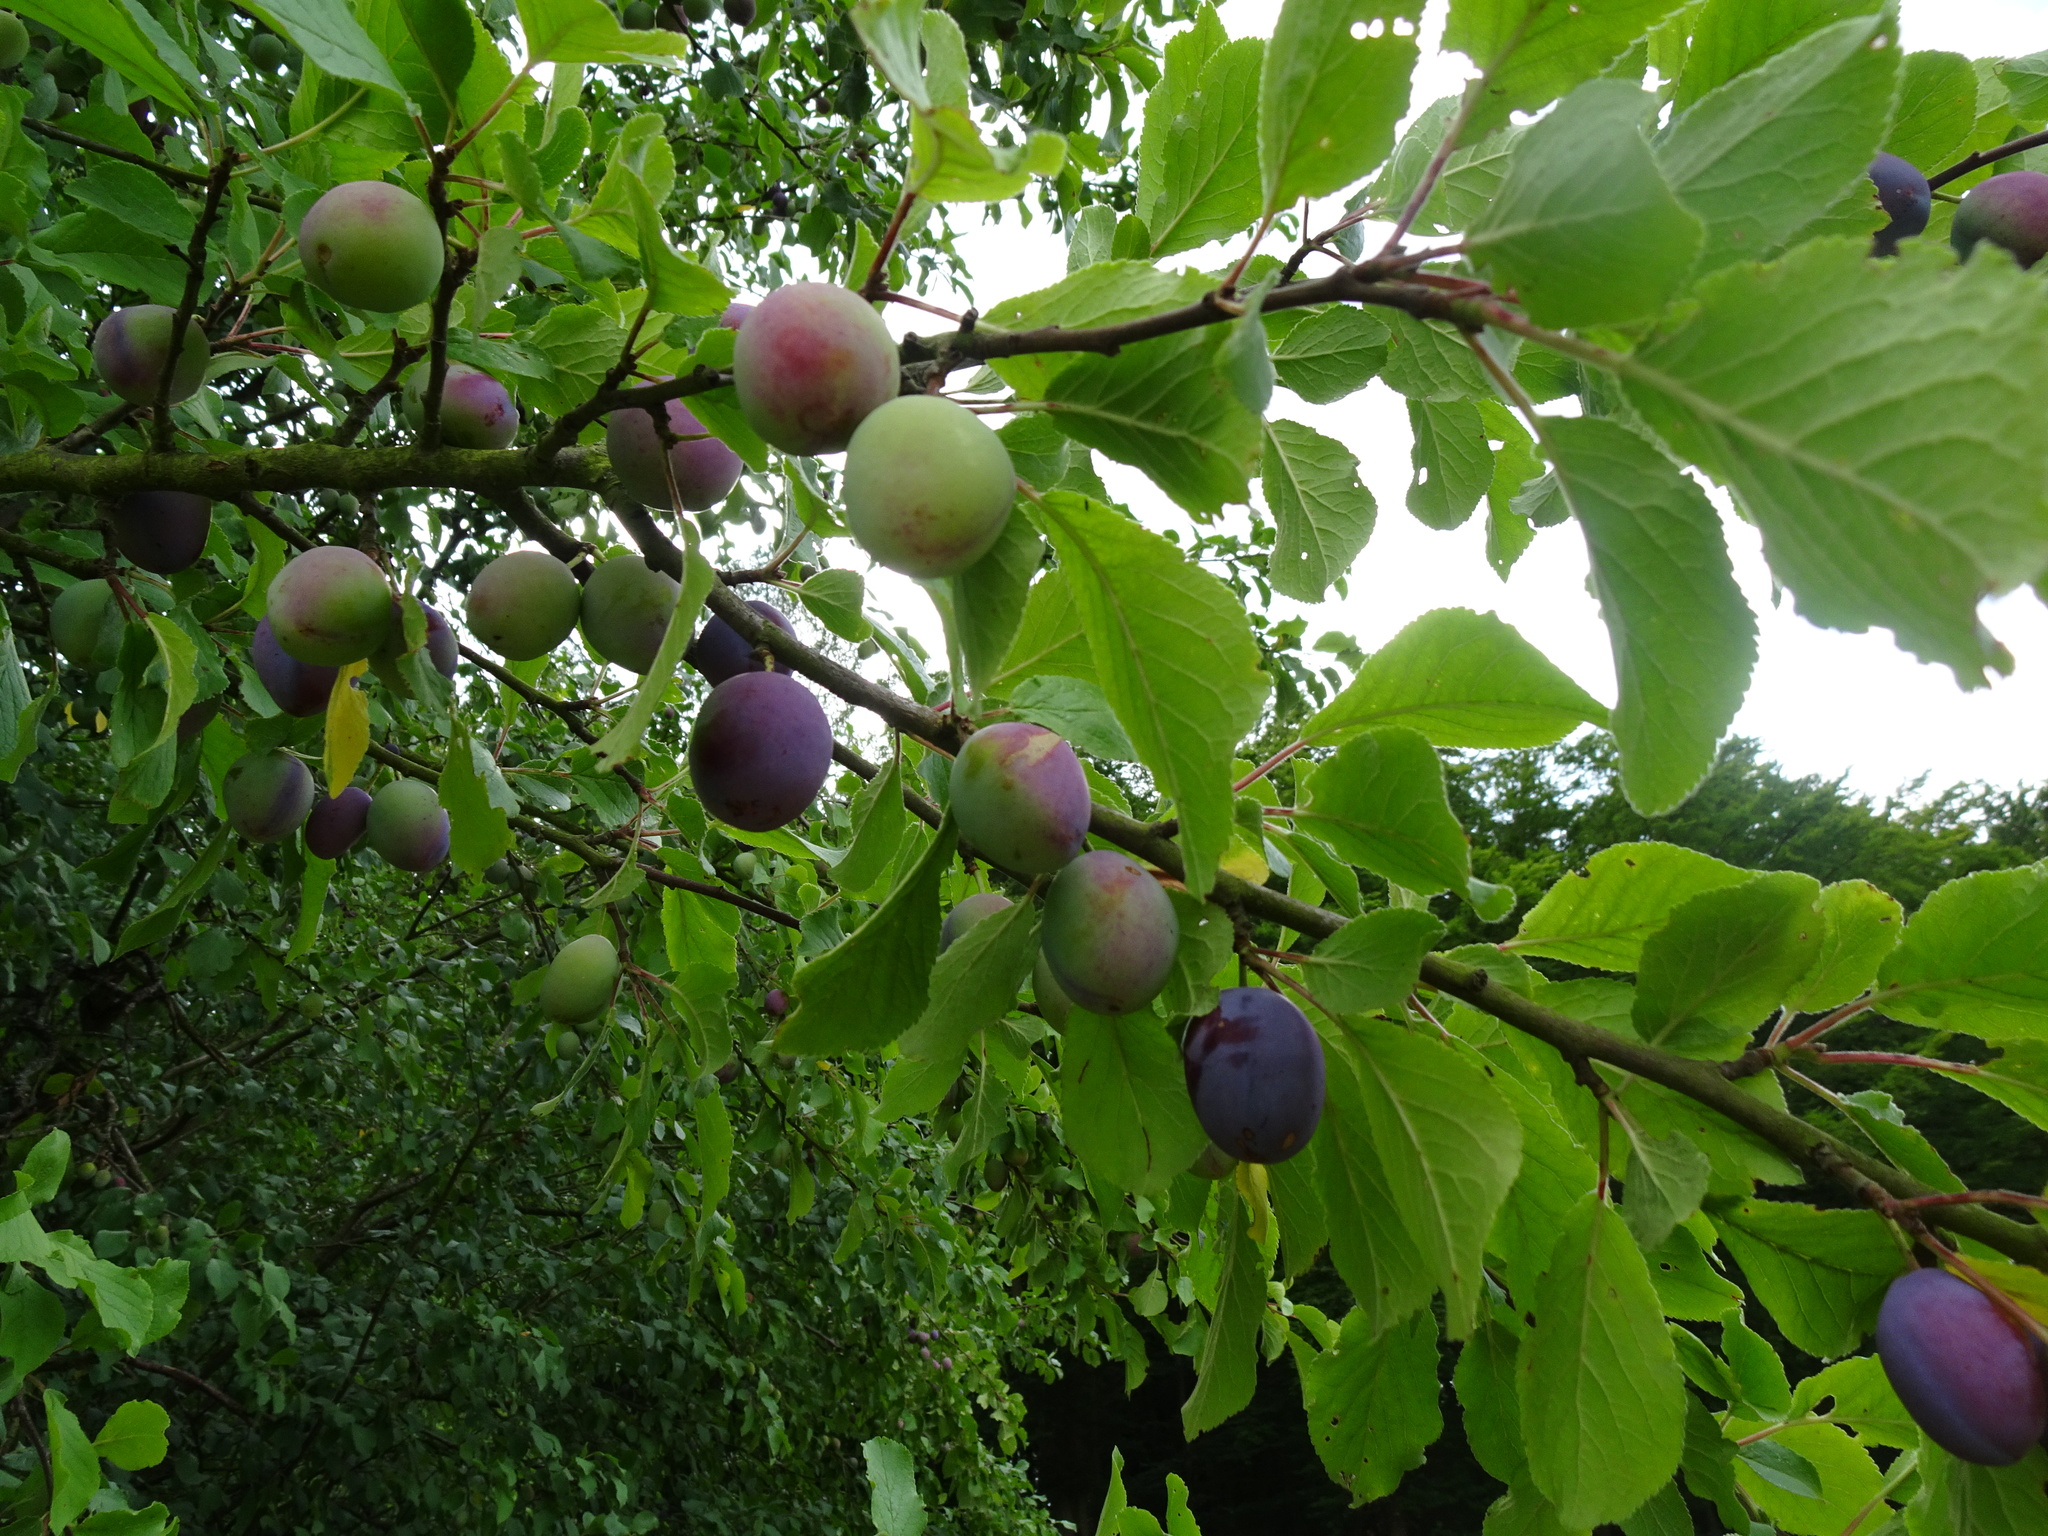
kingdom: Plantae
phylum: Tracheophyta
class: Magnoliopsida
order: Rosales
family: Rosaceae
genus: Prunus
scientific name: Prunus domestica
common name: Wild plum
